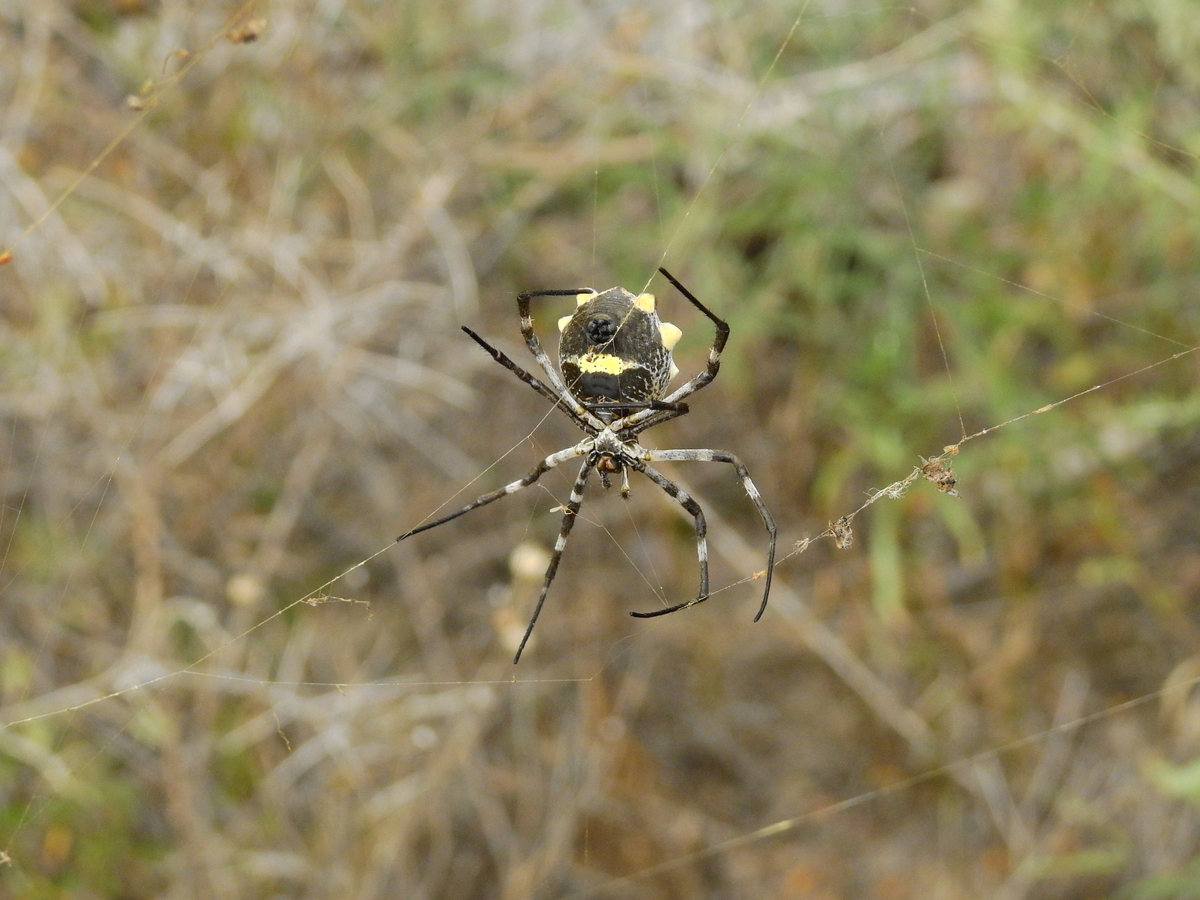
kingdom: Animalia
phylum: Arthropoda
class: Arachnida
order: Araneae
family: Araneidae
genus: Argiope
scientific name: Argiope argentata
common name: Orb weavers
